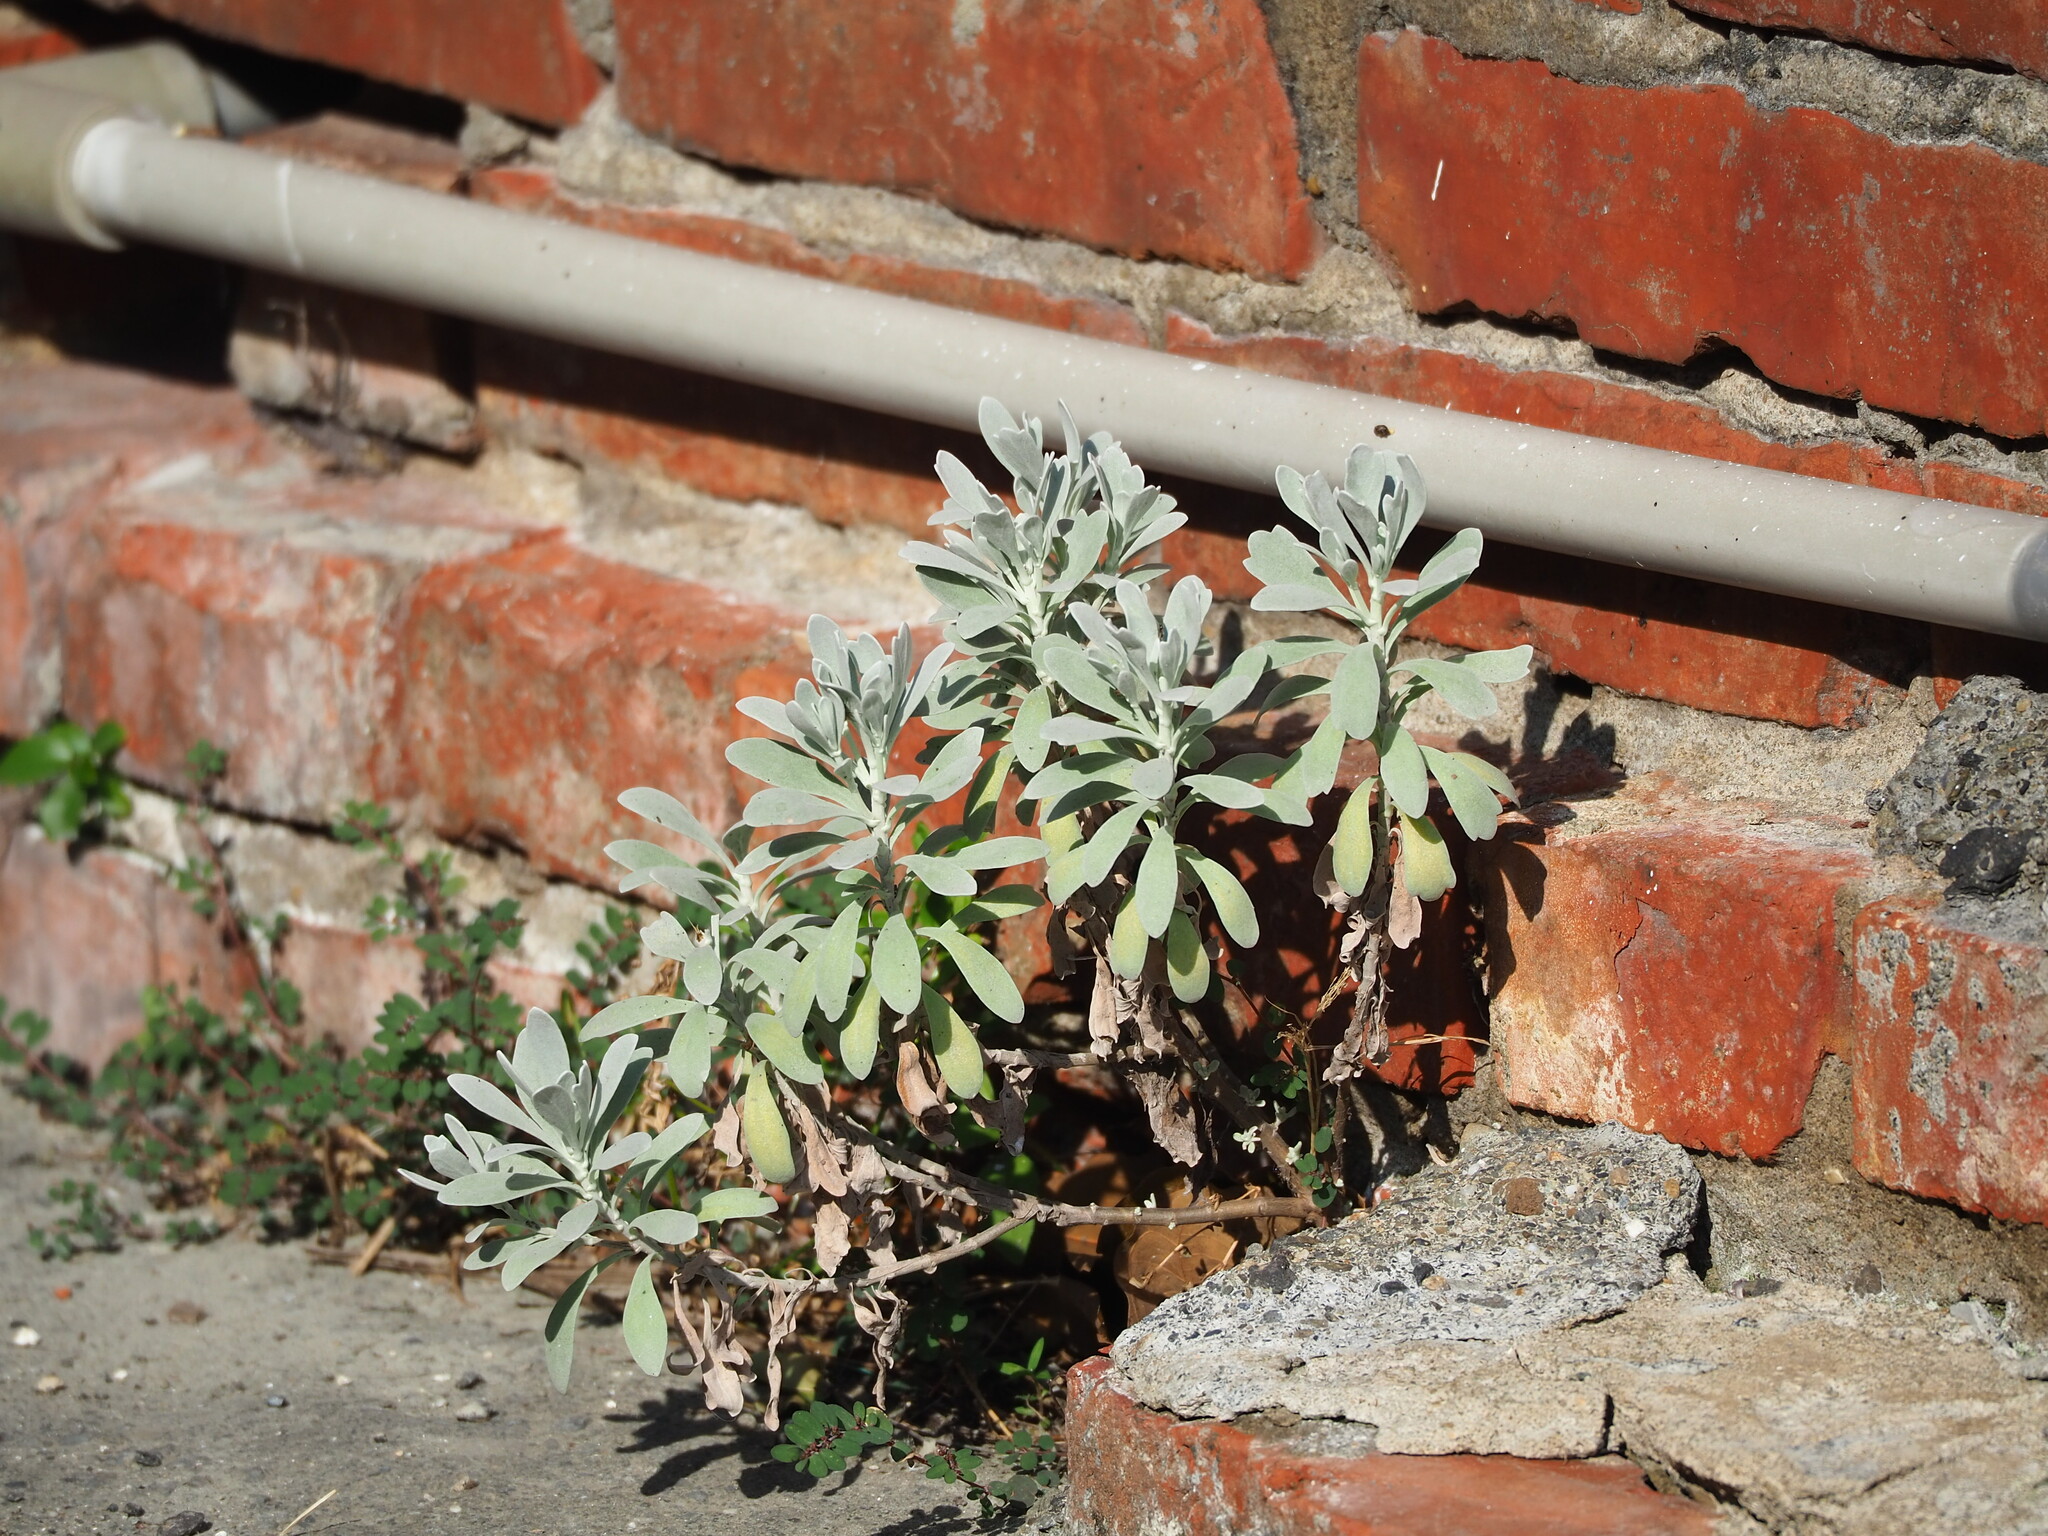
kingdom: Plantae
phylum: Tracheophyta
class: Magnoliopsida
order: Asterales
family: Asteraceae
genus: Crossostephium
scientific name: Crossostephium chinense
